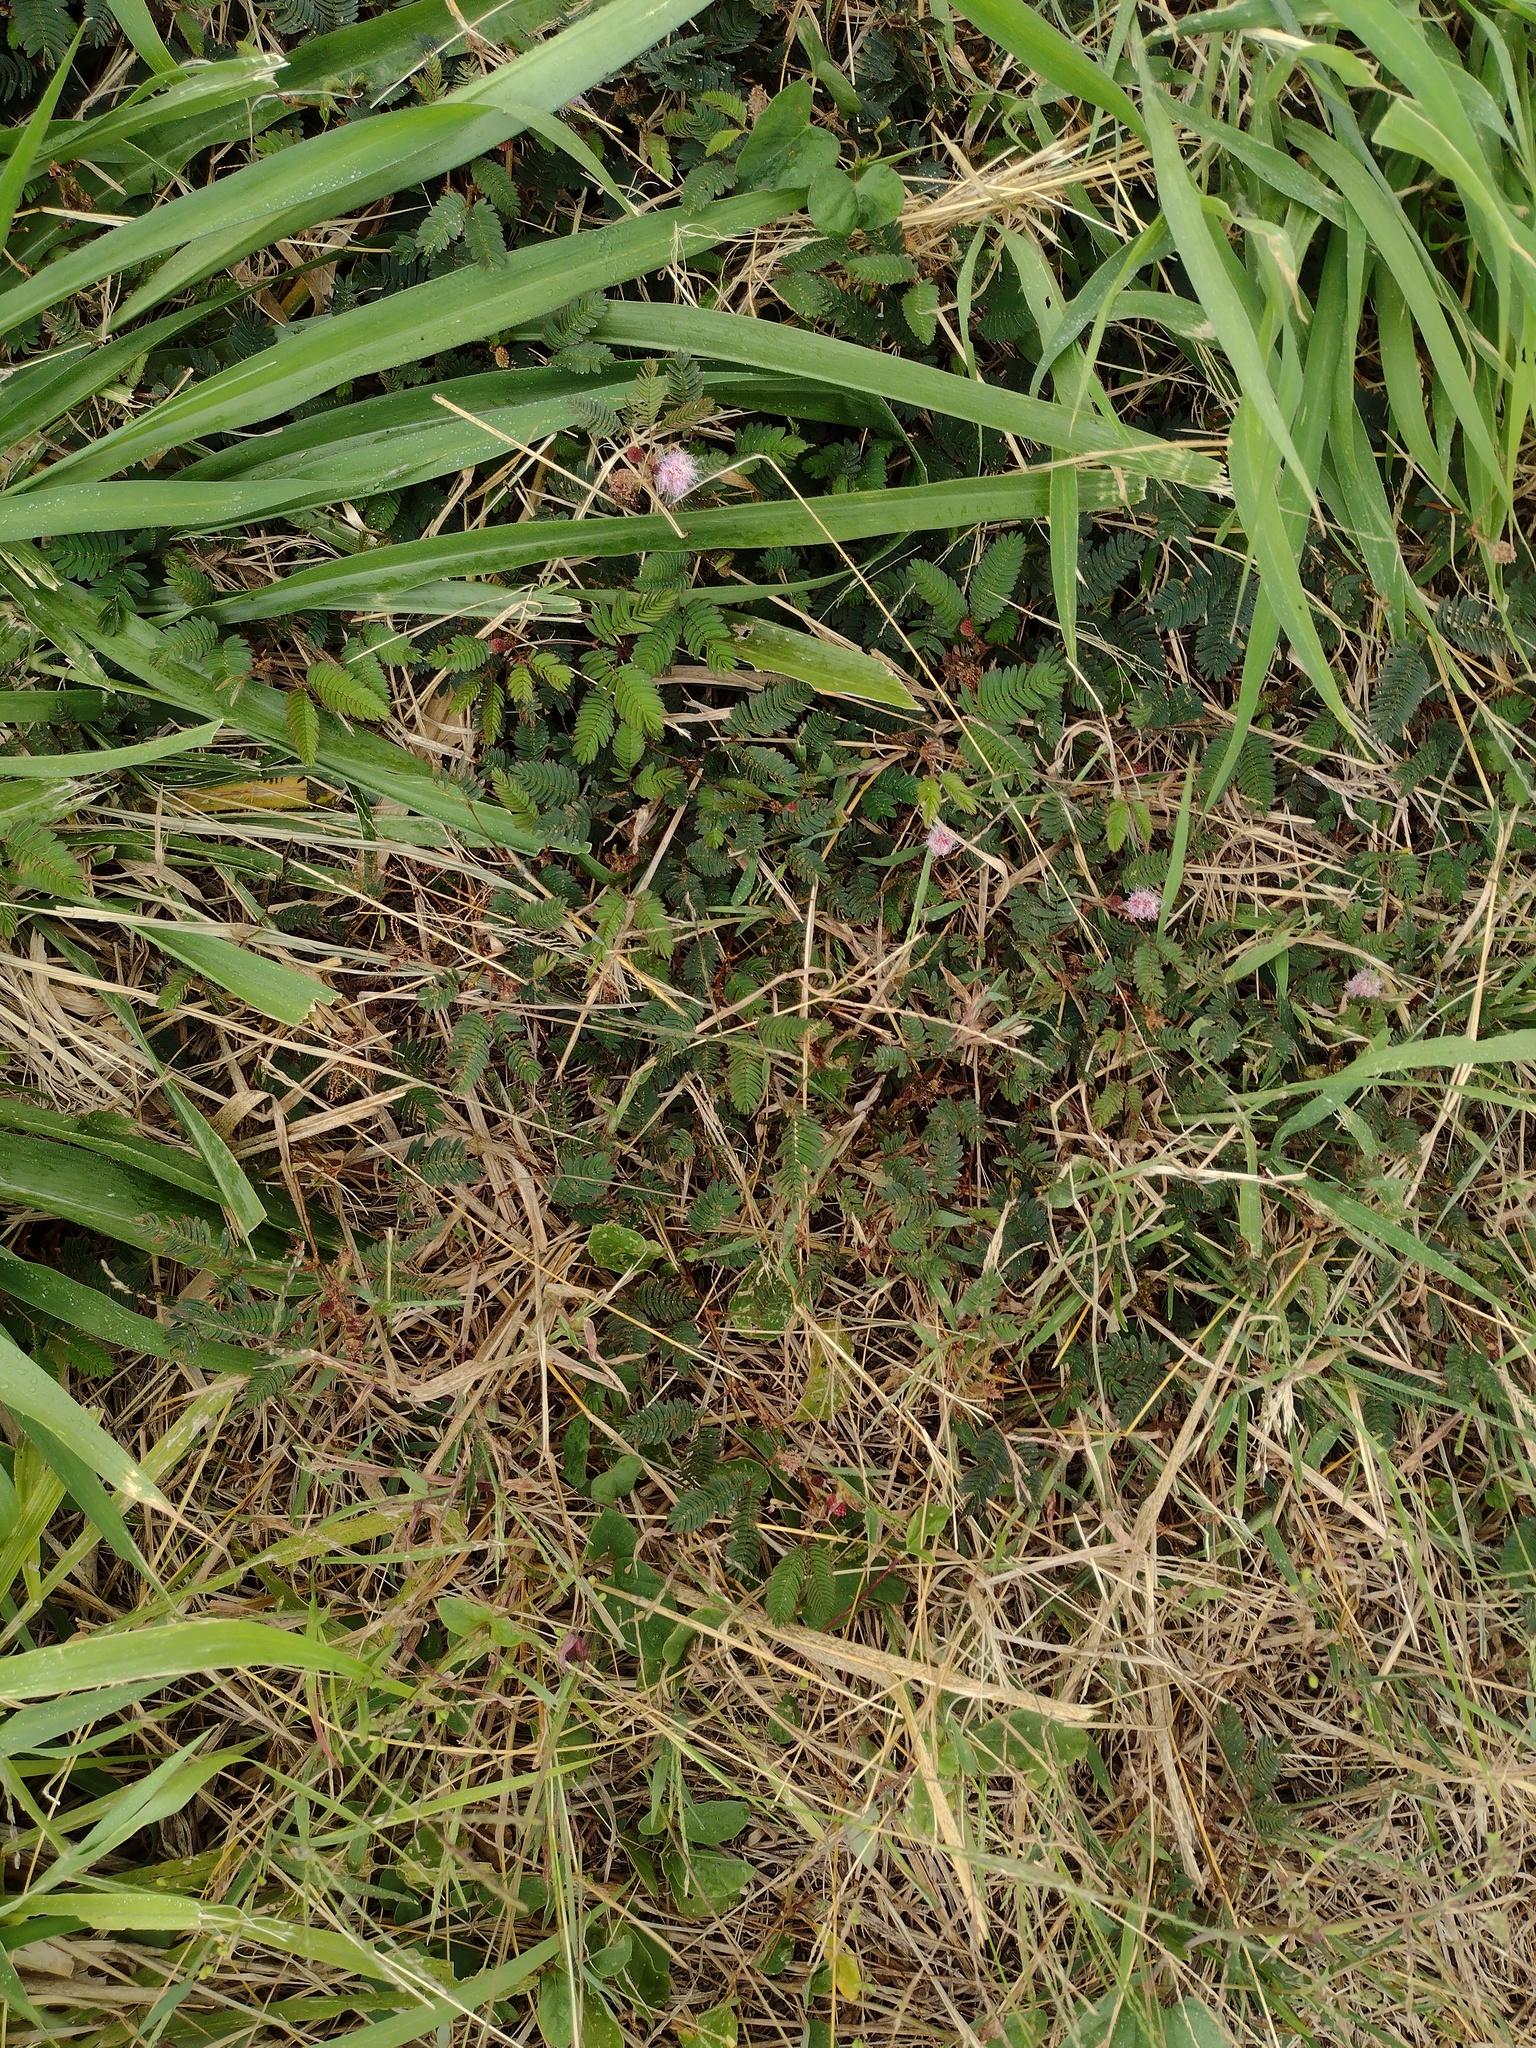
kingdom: Plantae
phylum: Tracheophyta
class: Magnoliopsida
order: Fabales
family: Fabaceae
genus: Mimosa
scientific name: Mimosa pudica
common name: Sensitive plant
